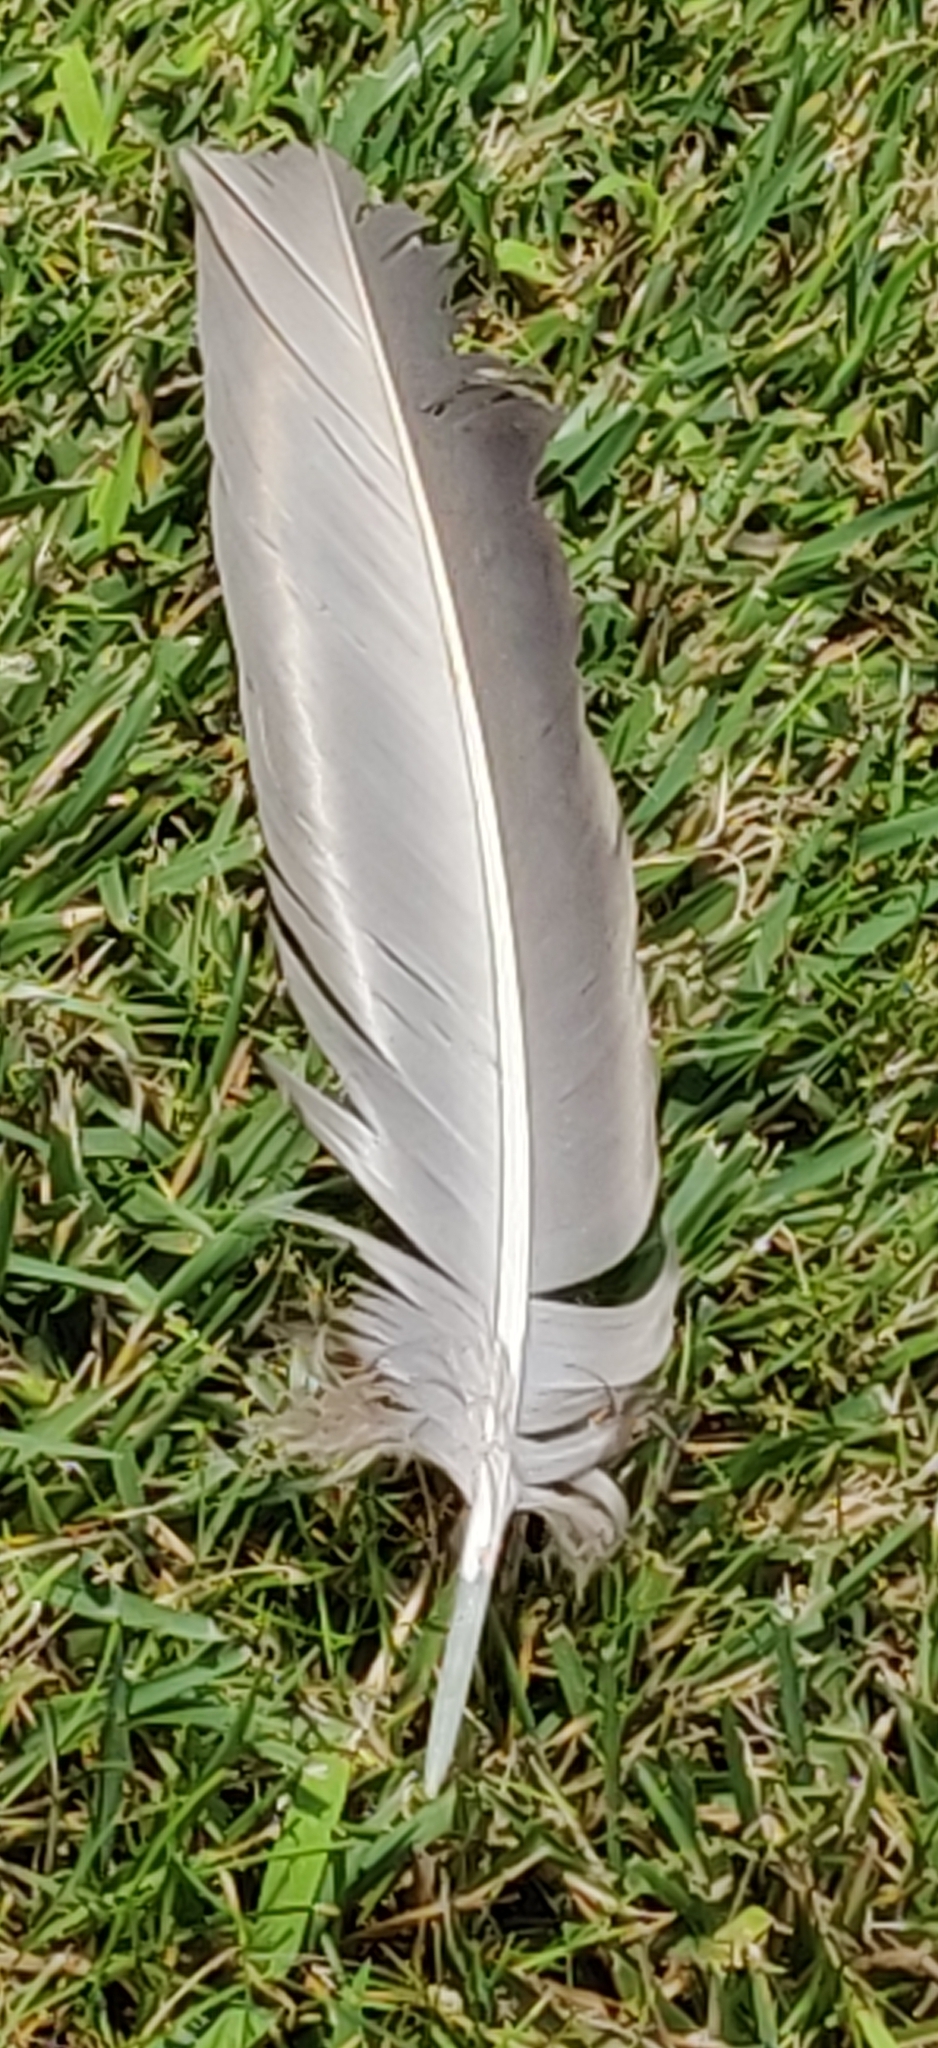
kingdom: Animalia
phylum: Chordata
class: Aves
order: Accipitriformes
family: Cathartidae
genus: Cathartes
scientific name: Cathartes aura
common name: Turkey vulture
